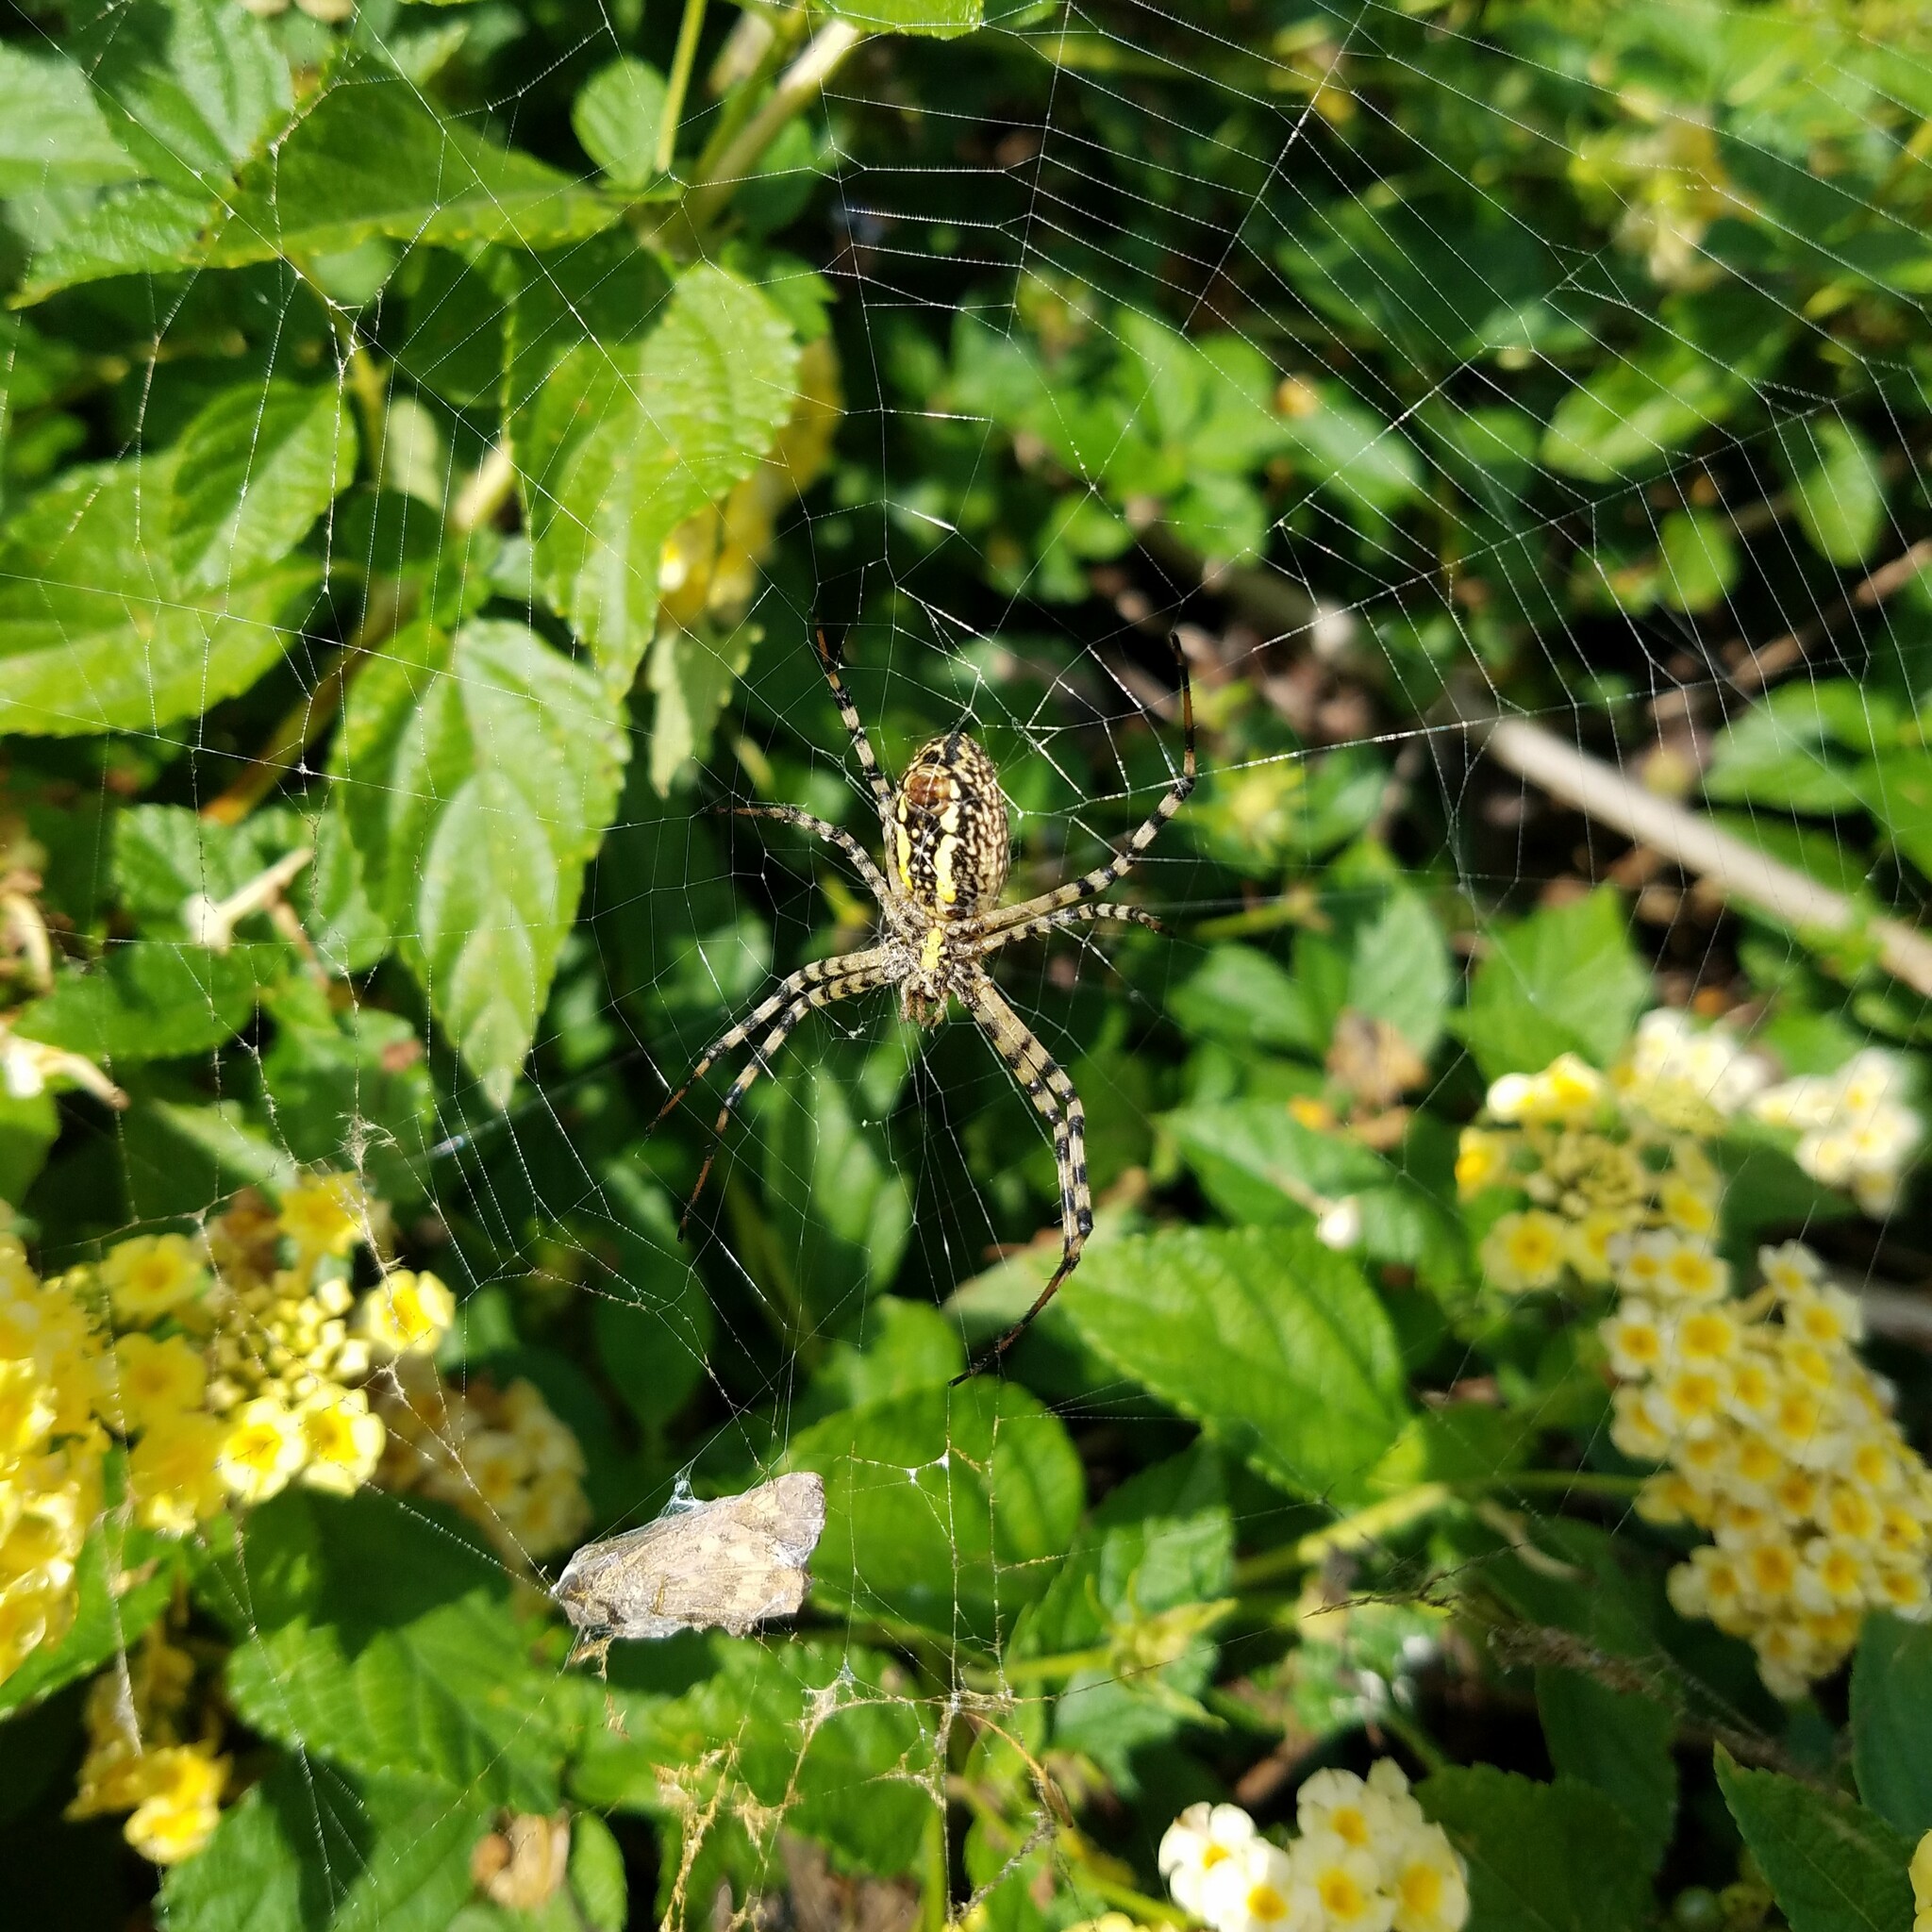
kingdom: Animalia
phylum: Arthropoda
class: Arachnida
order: Araneae
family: Araneidae
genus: Argiope
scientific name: Argiope trifasciata
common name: Banded garden spider
